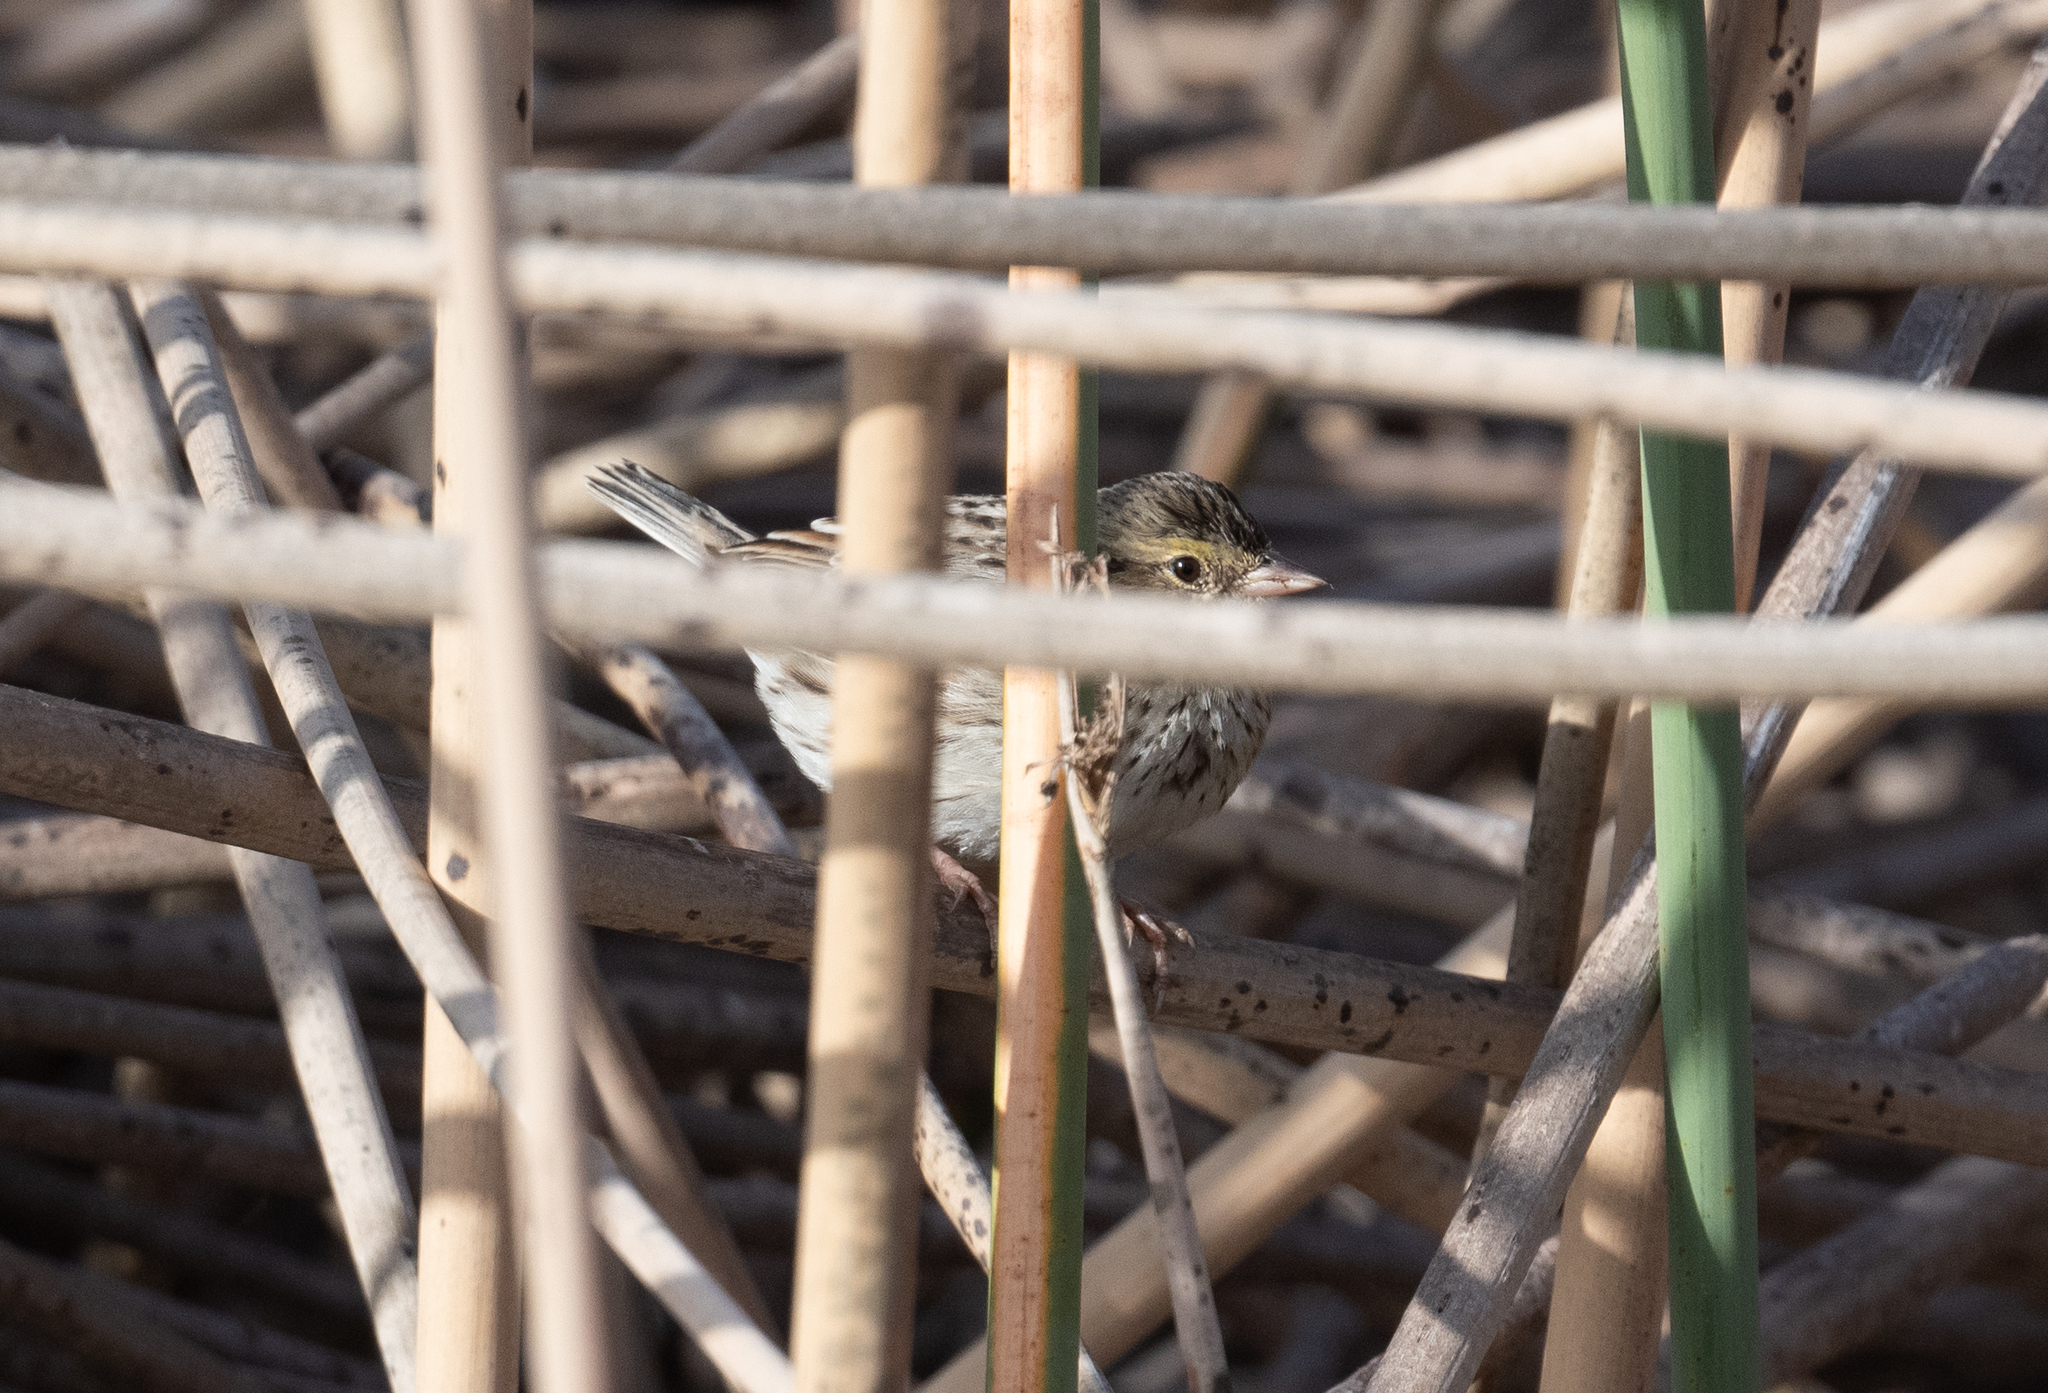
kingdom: Animalia
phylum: Chordata
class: Aves
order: Passeriformes
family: Passerellidae
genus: Passerculus
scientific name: Passerculus sandwichensis
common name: Savannah sparrow
